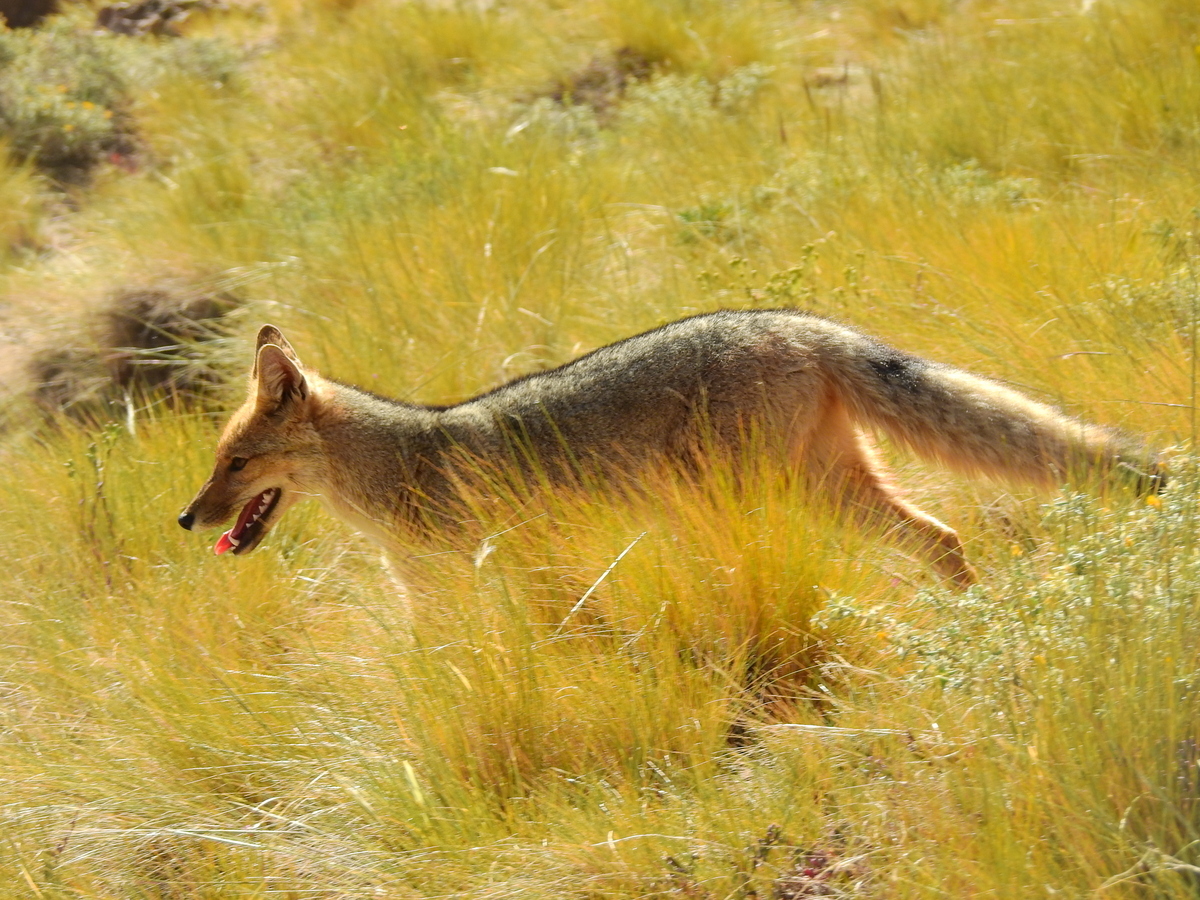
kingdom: Animalia
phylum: Chordata
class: Mammalia
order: Carnivora
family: Canidae
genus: Lycalopex
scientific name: Lycalopex culpaeus
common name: Culpeo
